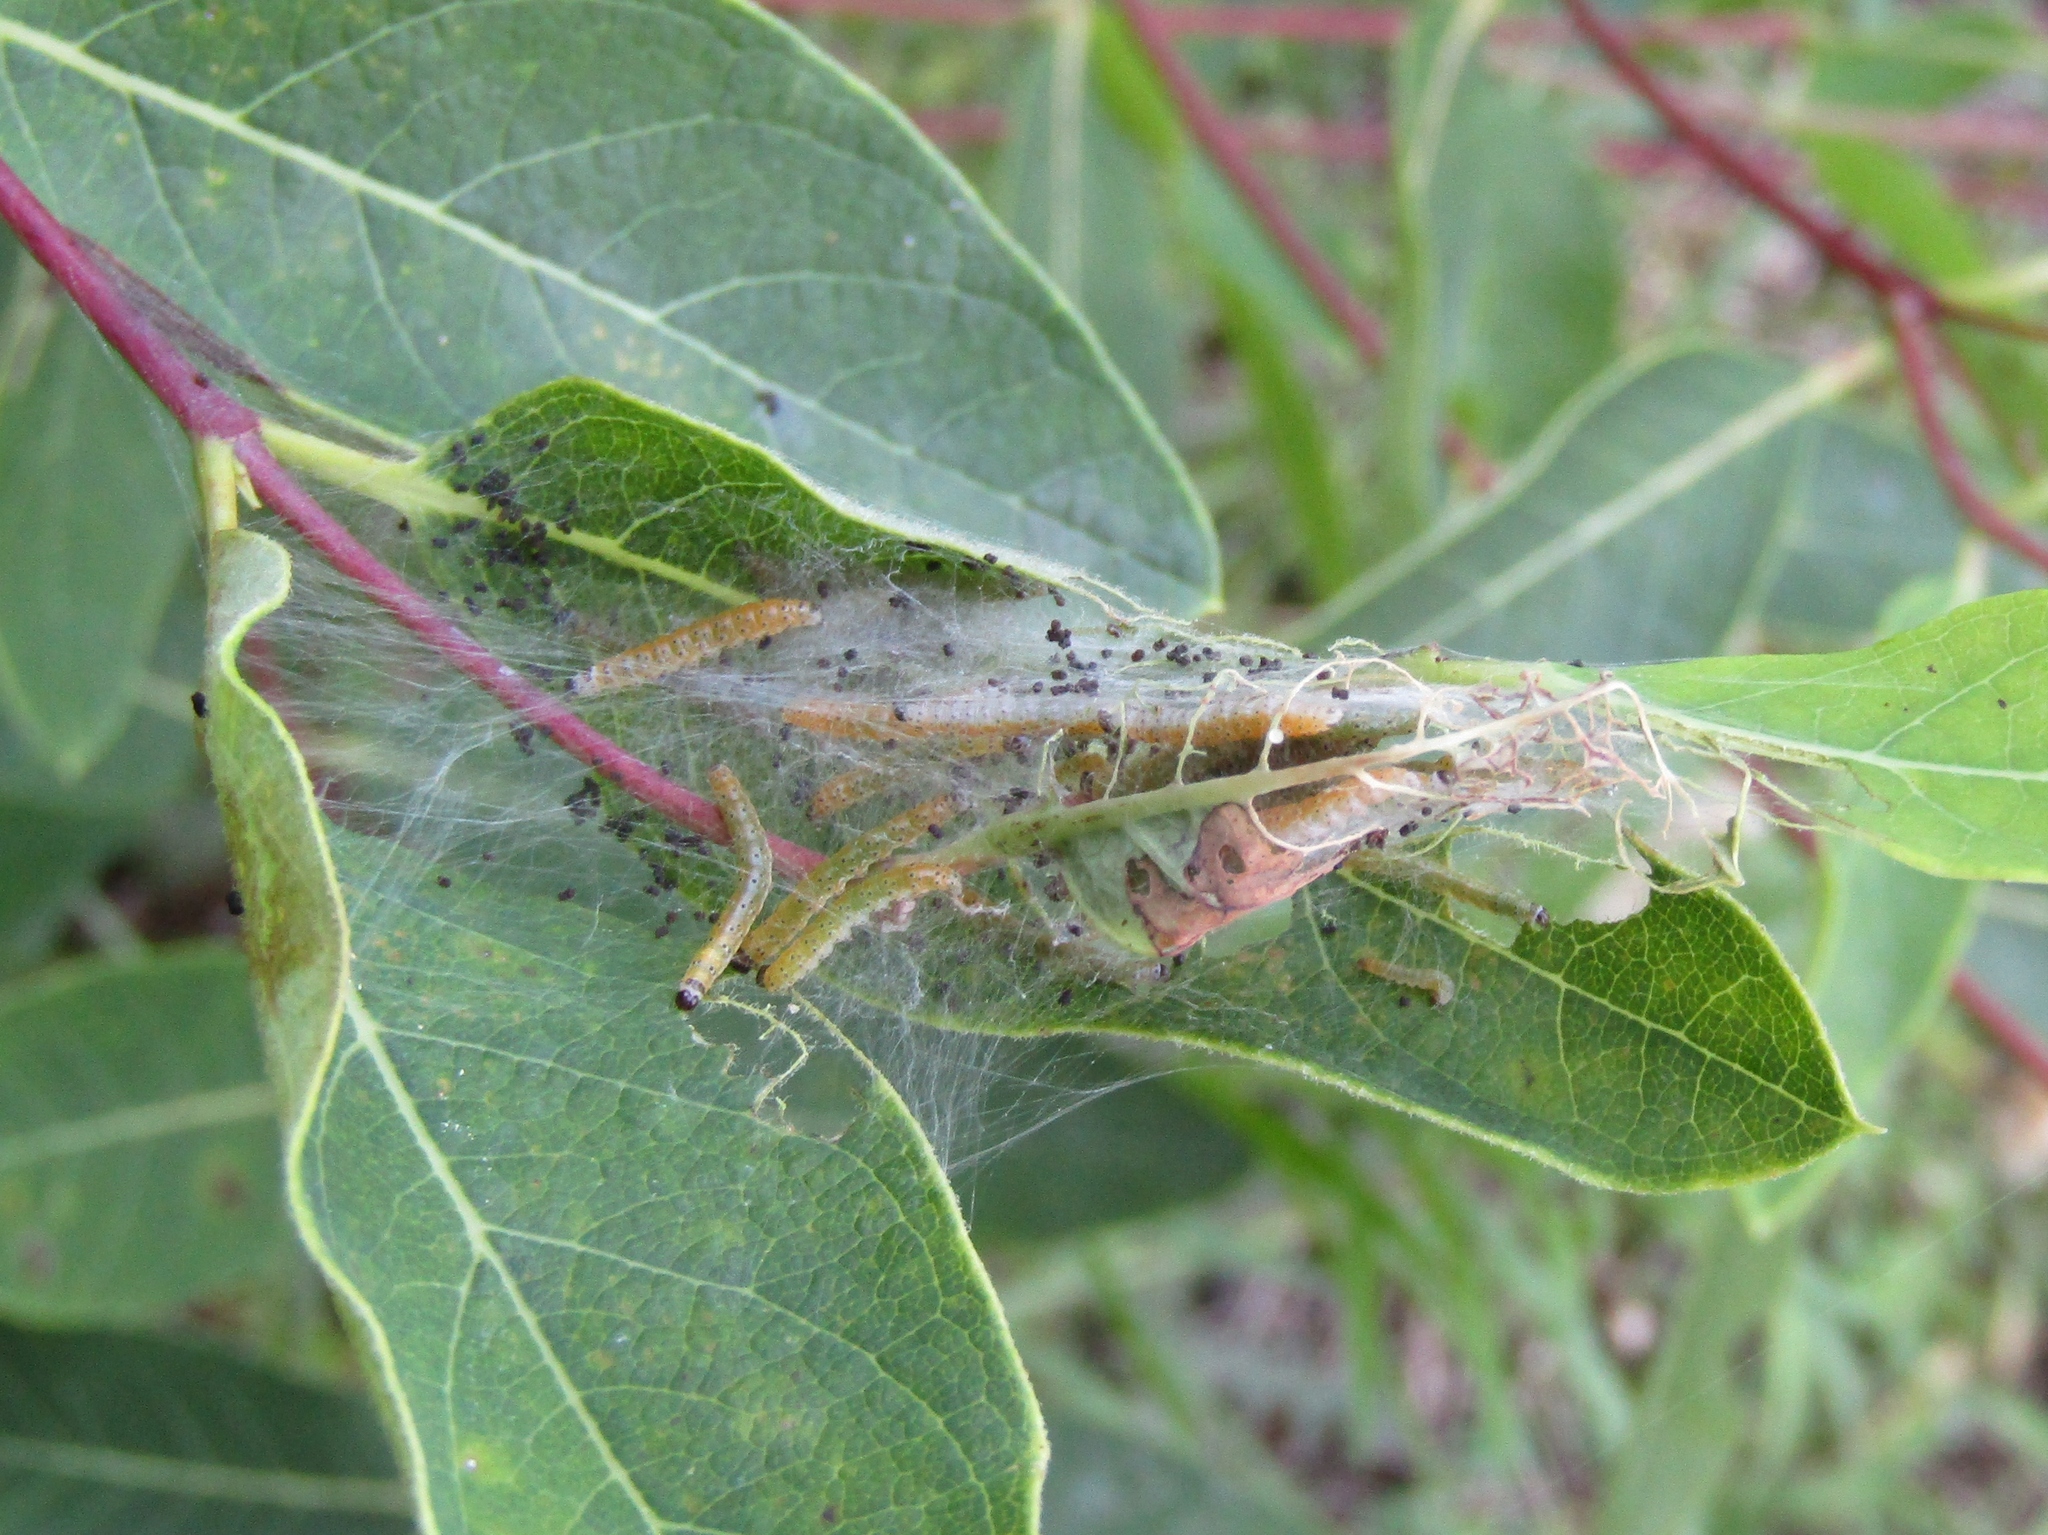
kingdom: Animalia
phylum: Arthropoda
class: Insecta
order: Lepidoptera
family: Crambidae
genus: Saucrobotys
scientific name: Saucrobotys futilalis
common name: Dogbane saucrobotys moth
